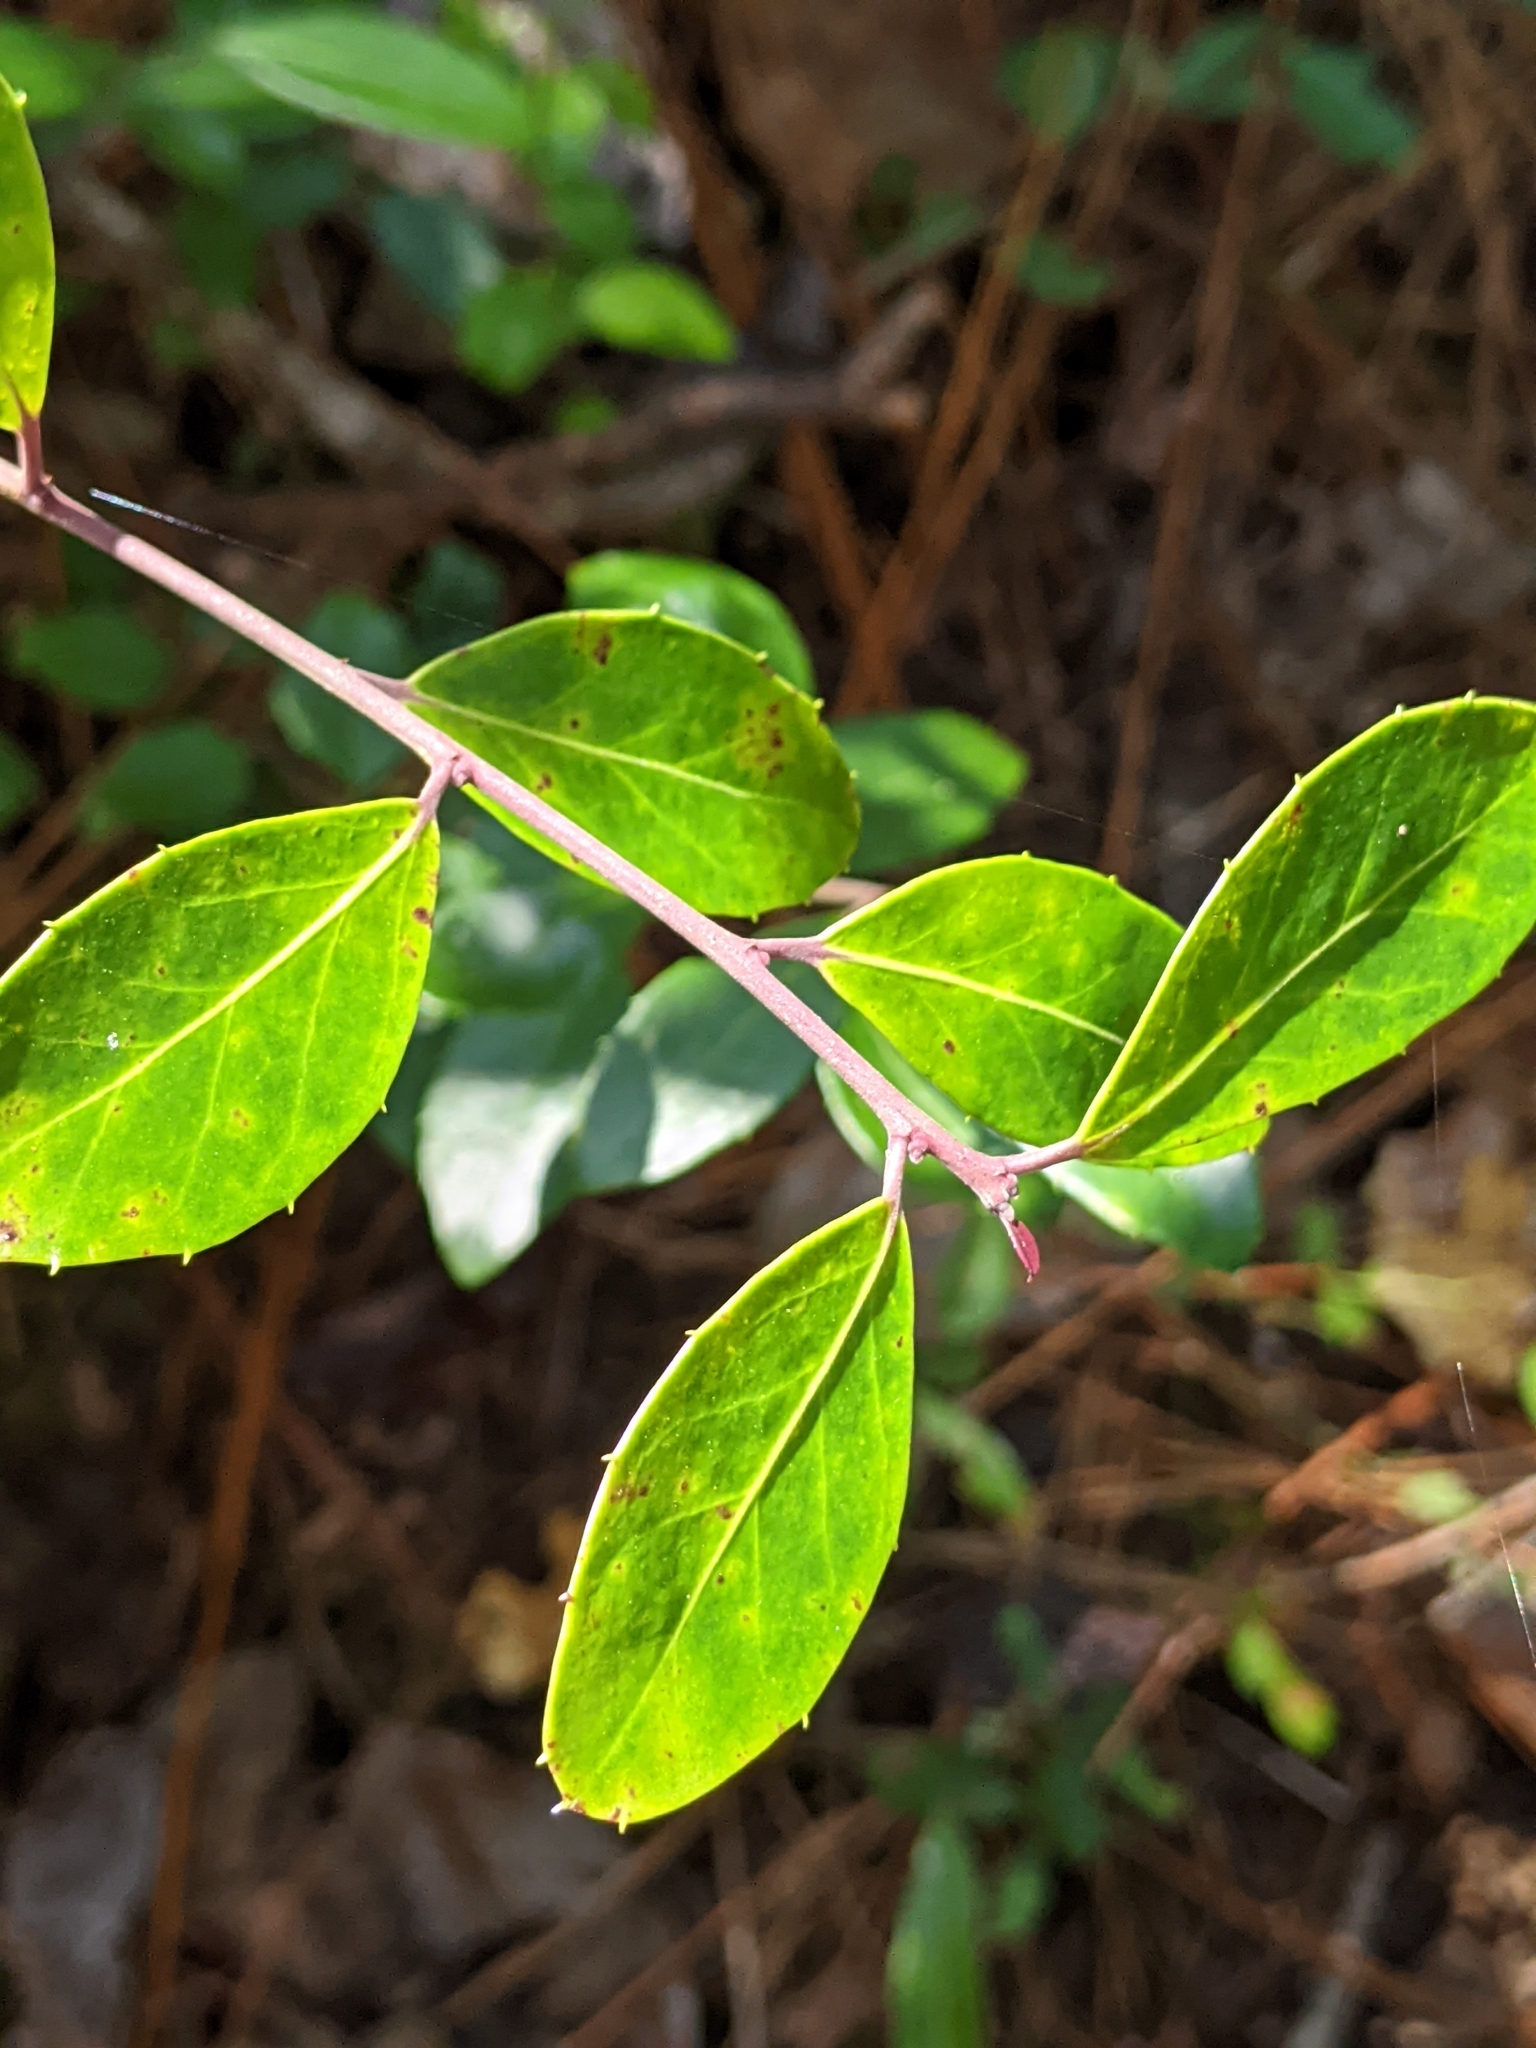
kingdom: Plantae
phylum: Tracheophyta
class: Magnoliopsida
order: Aquifoliales
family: Aquifoliaceae
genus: Ilex
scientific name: Ilex coriacea
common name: Sweet gallberry
